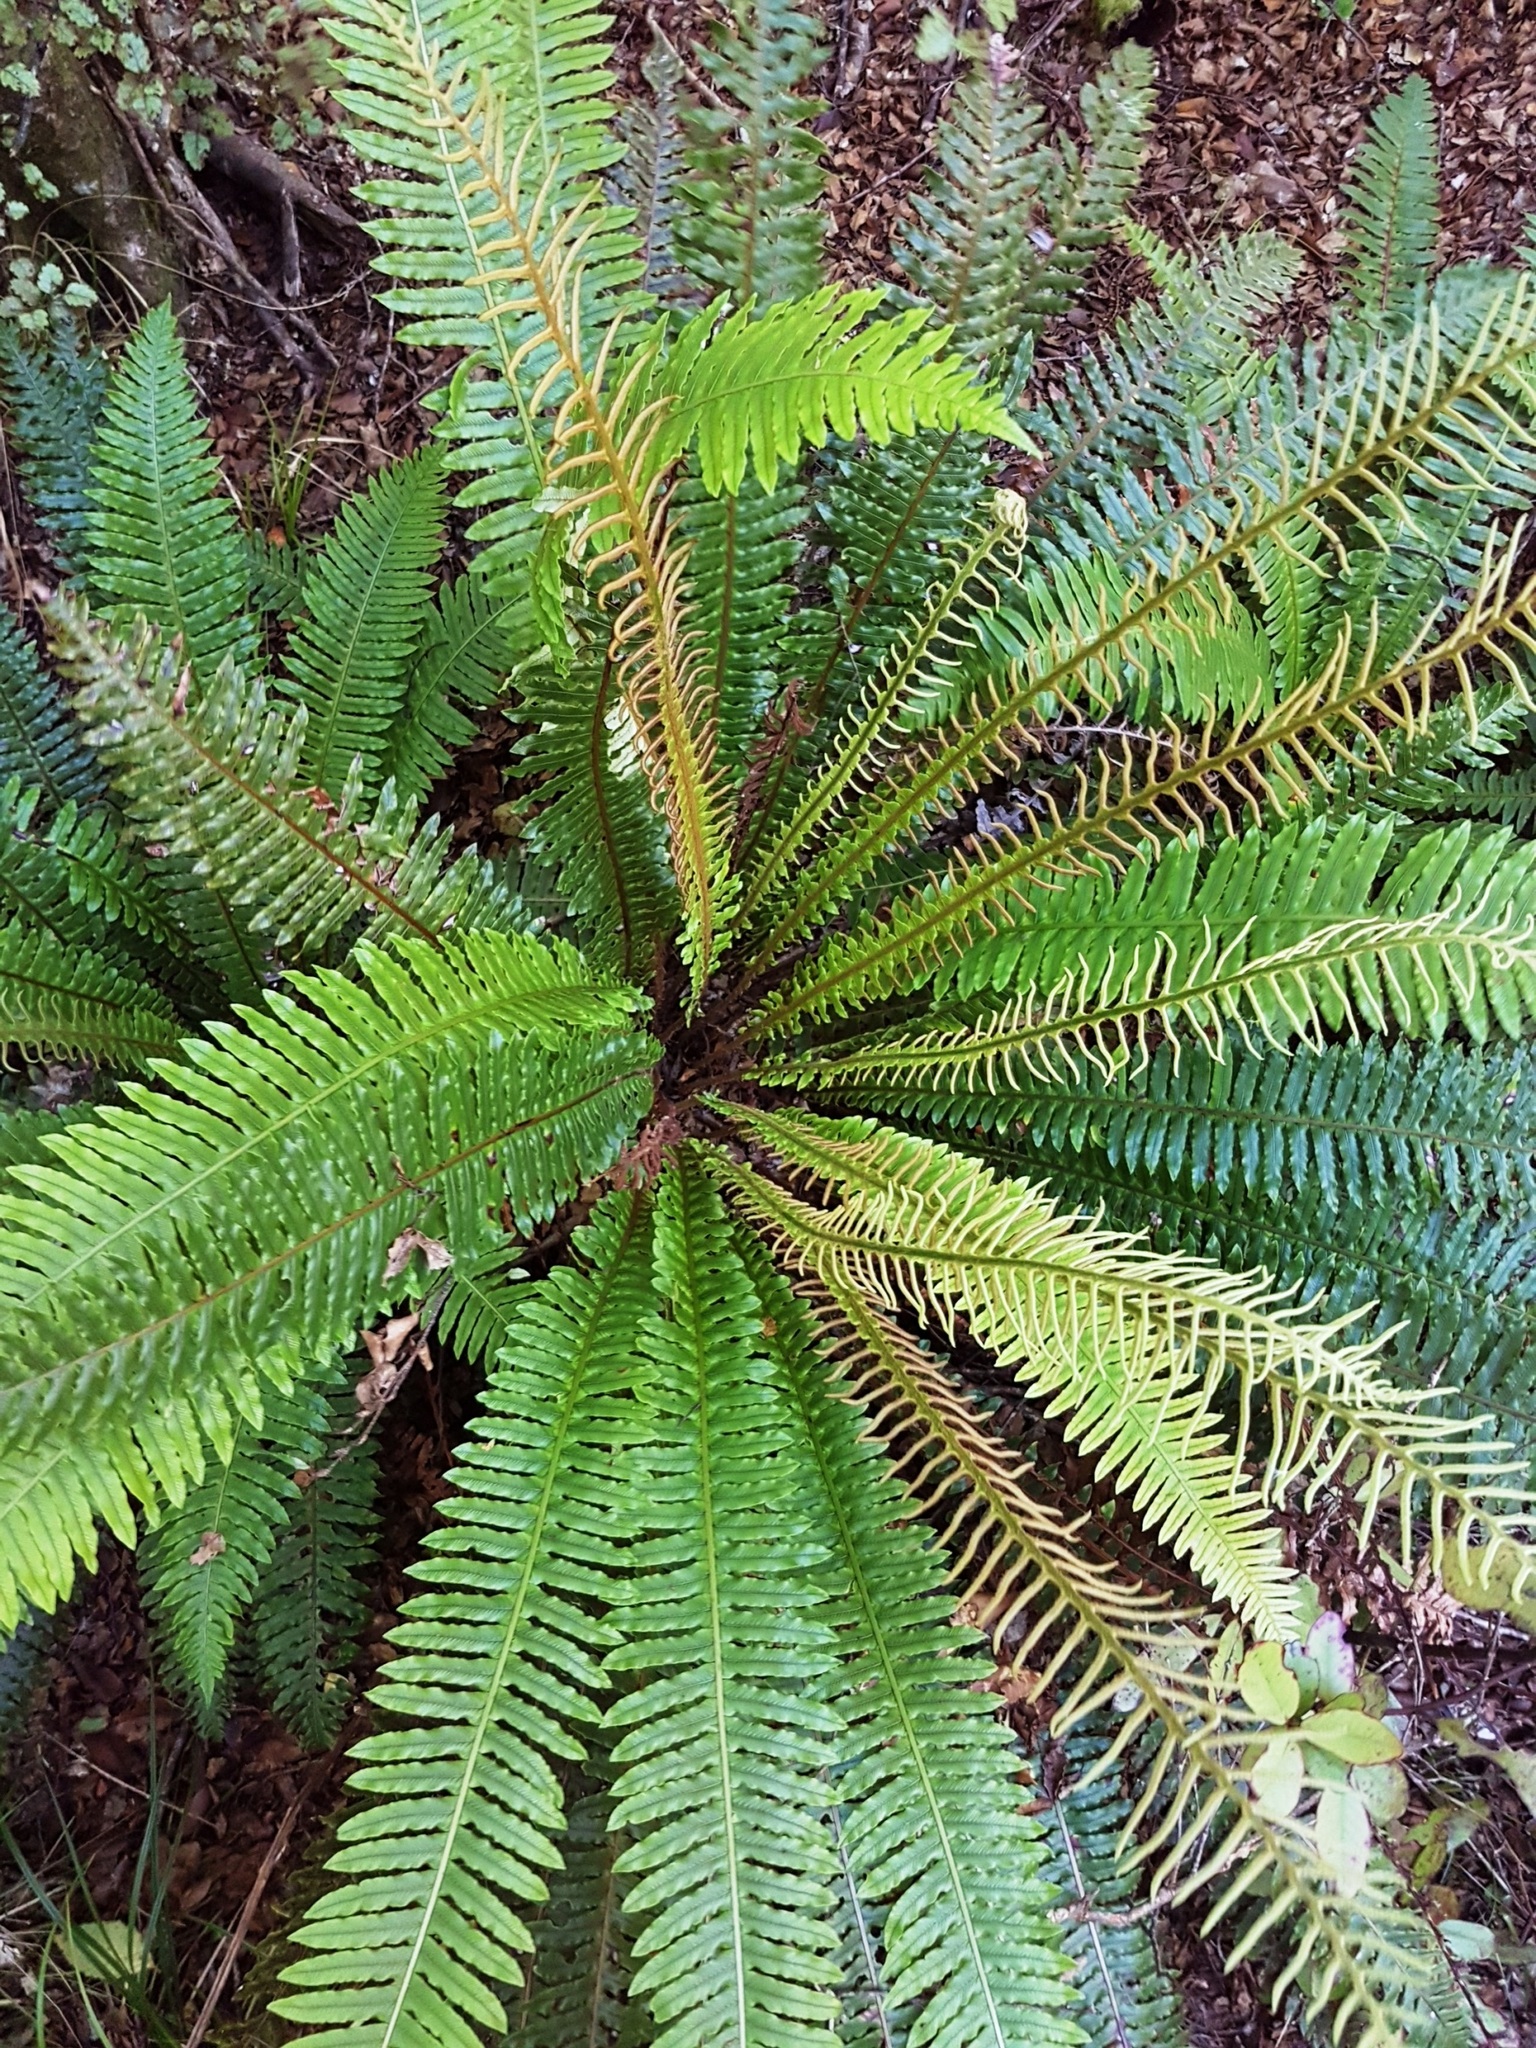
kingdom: Plantae
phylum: Tracheophyta
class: Polypodiopsida
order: Polypodiales
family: Blechnaceae
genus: Lomaria
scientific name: Lomaria discolor
